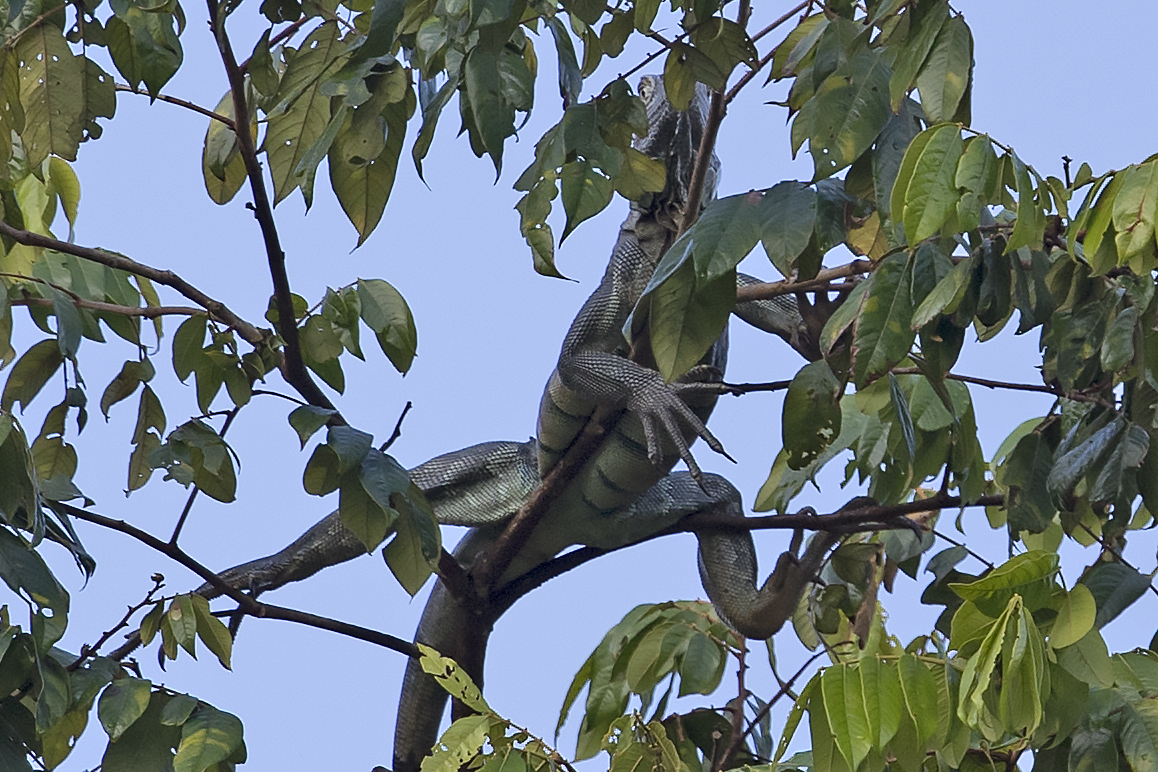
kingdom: Animalia
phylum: Chordata
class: Squamata
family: Iguanidae
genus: Iguana
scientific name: Iguana iguana
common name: Green iguana
